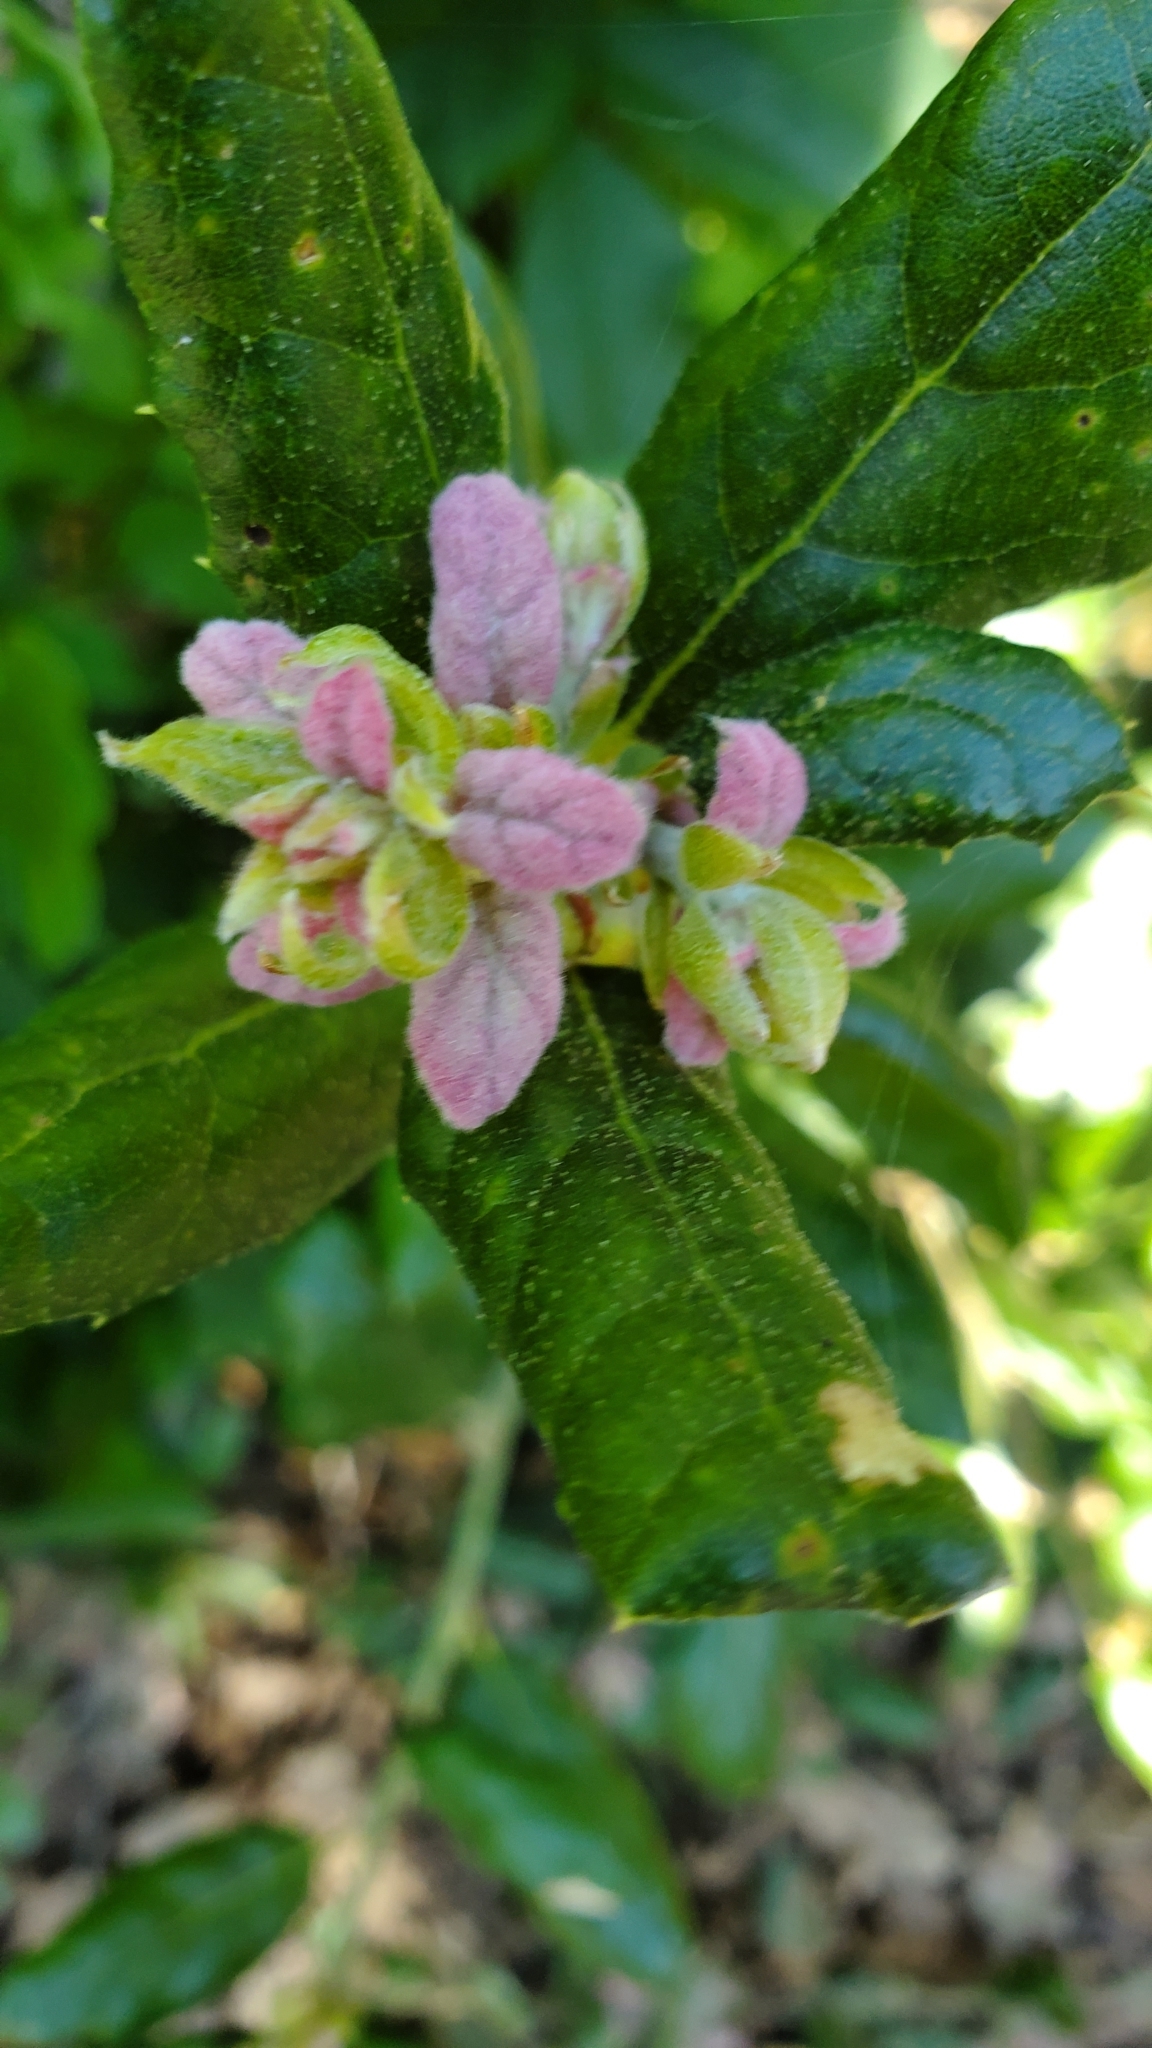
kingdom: Plantae
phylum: Tracheophyta
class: Magnoliopsida
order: Fagales
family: Fagaceae
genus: Quercus
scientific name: Quercus agrifolia
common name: California live oak
